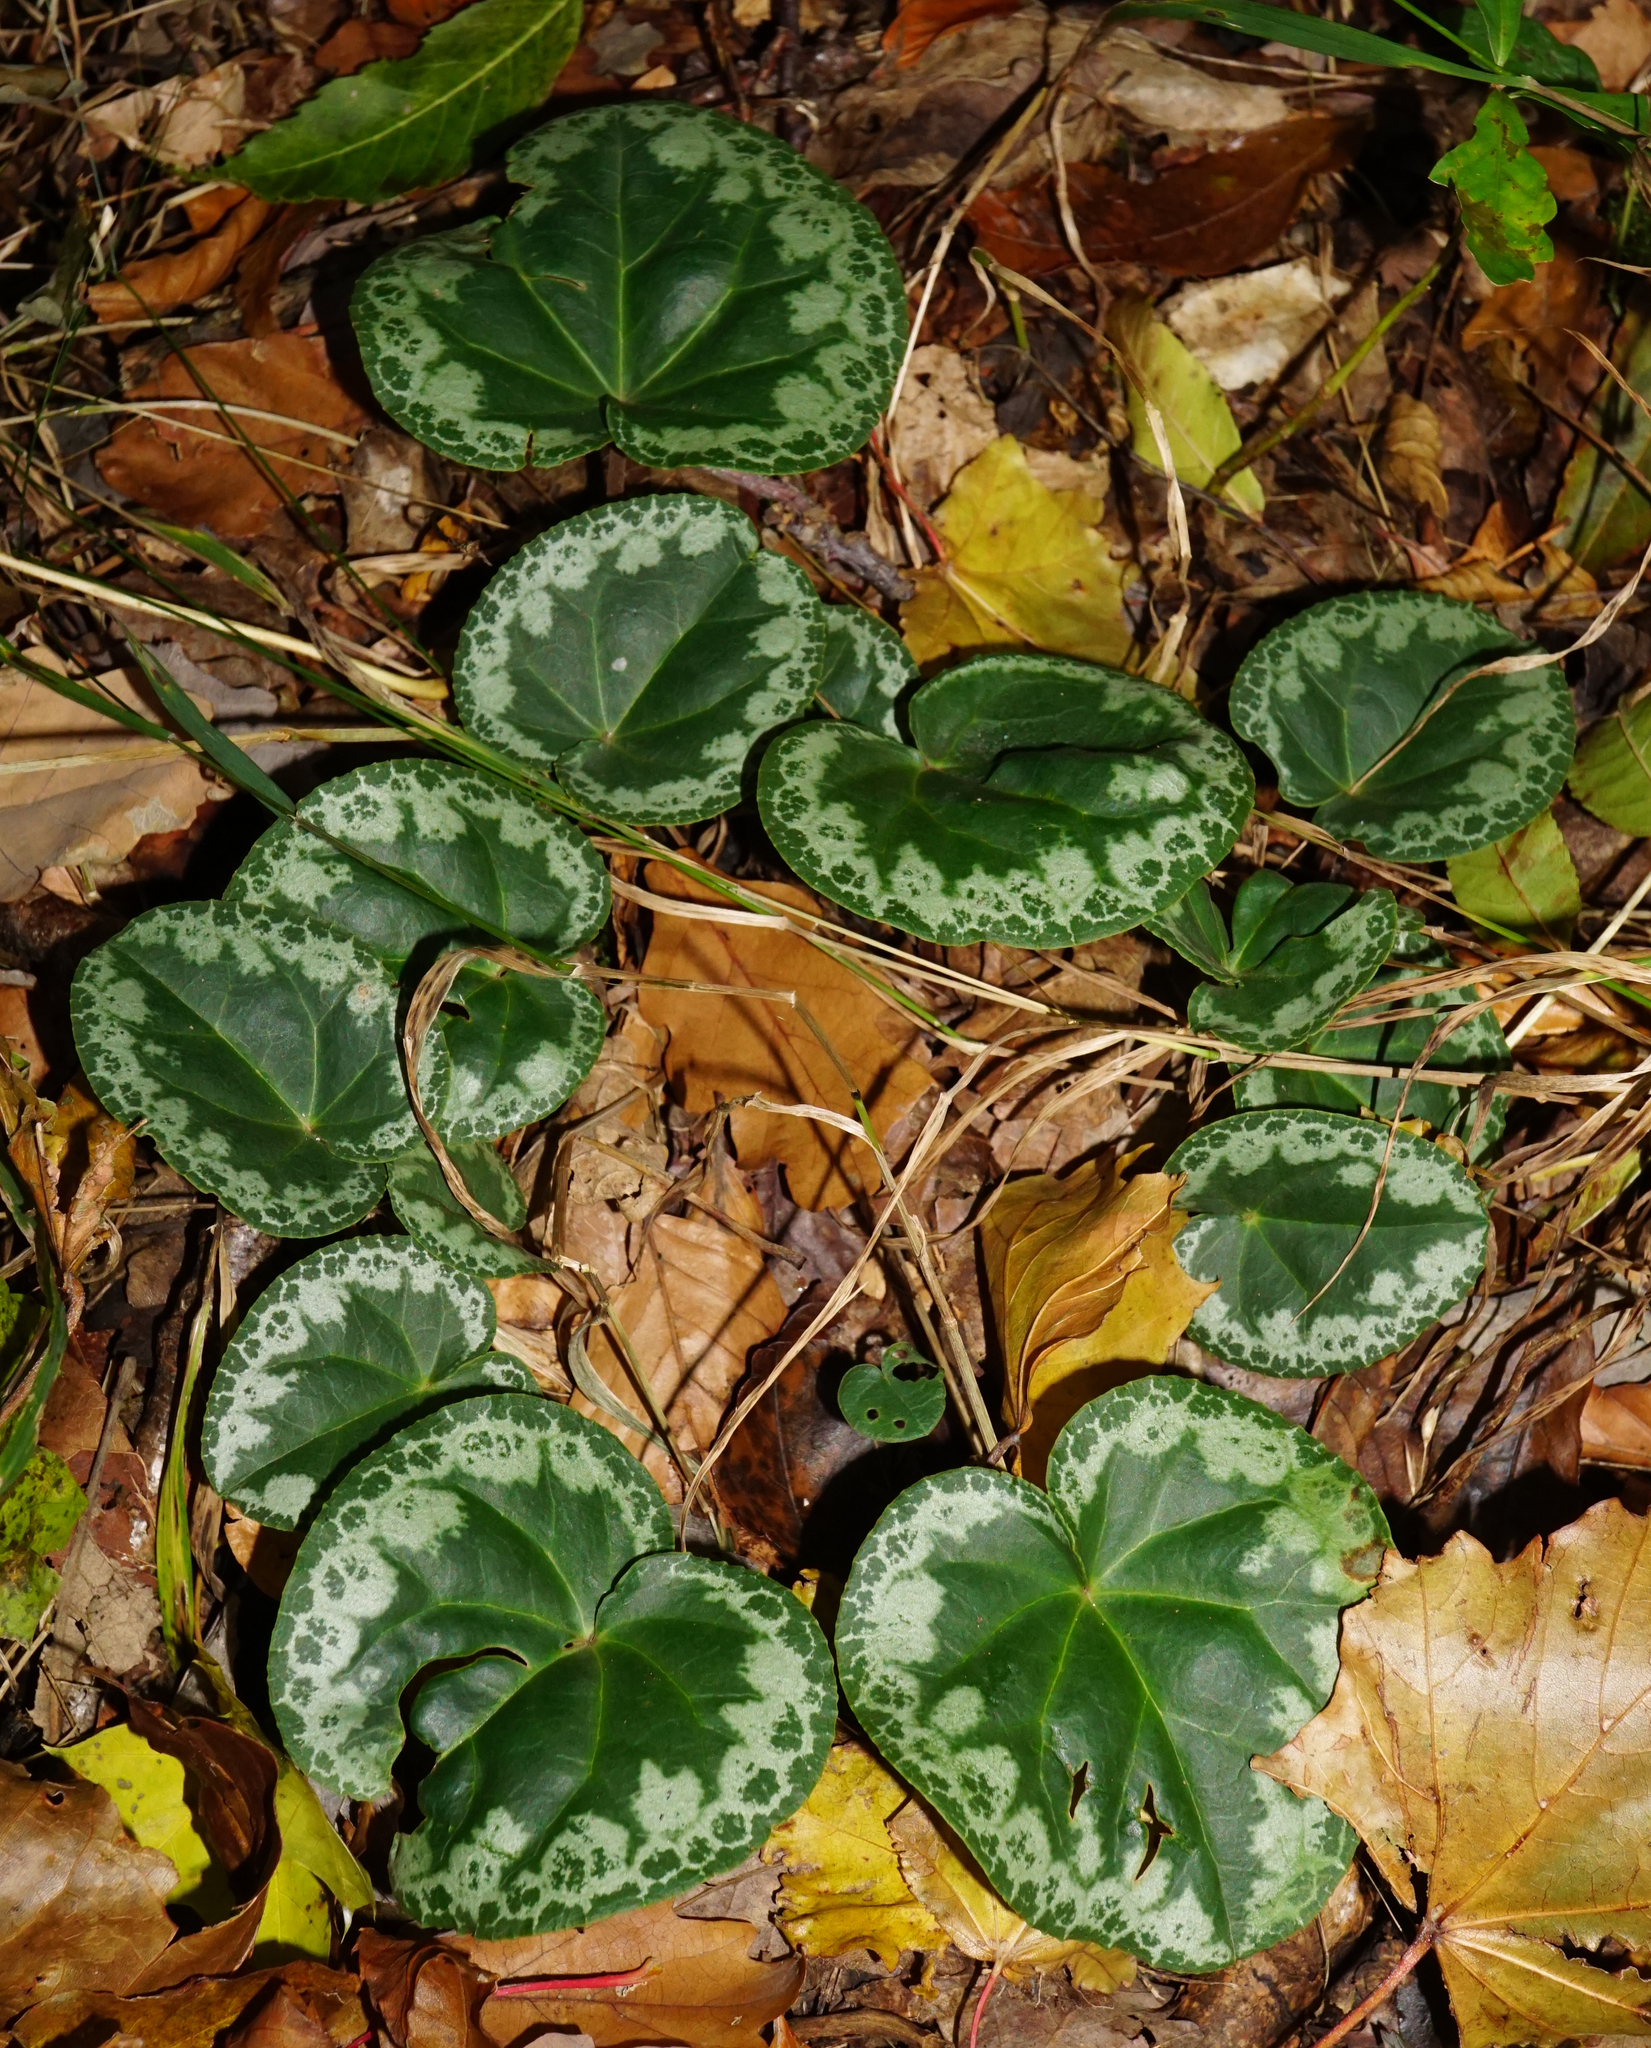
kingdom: Plantae
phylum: Tracheophyta
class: Magnoliopsida
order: Ericales
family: Primulaceae
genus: Cyclamen
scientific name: Cyclamen purpurascens
